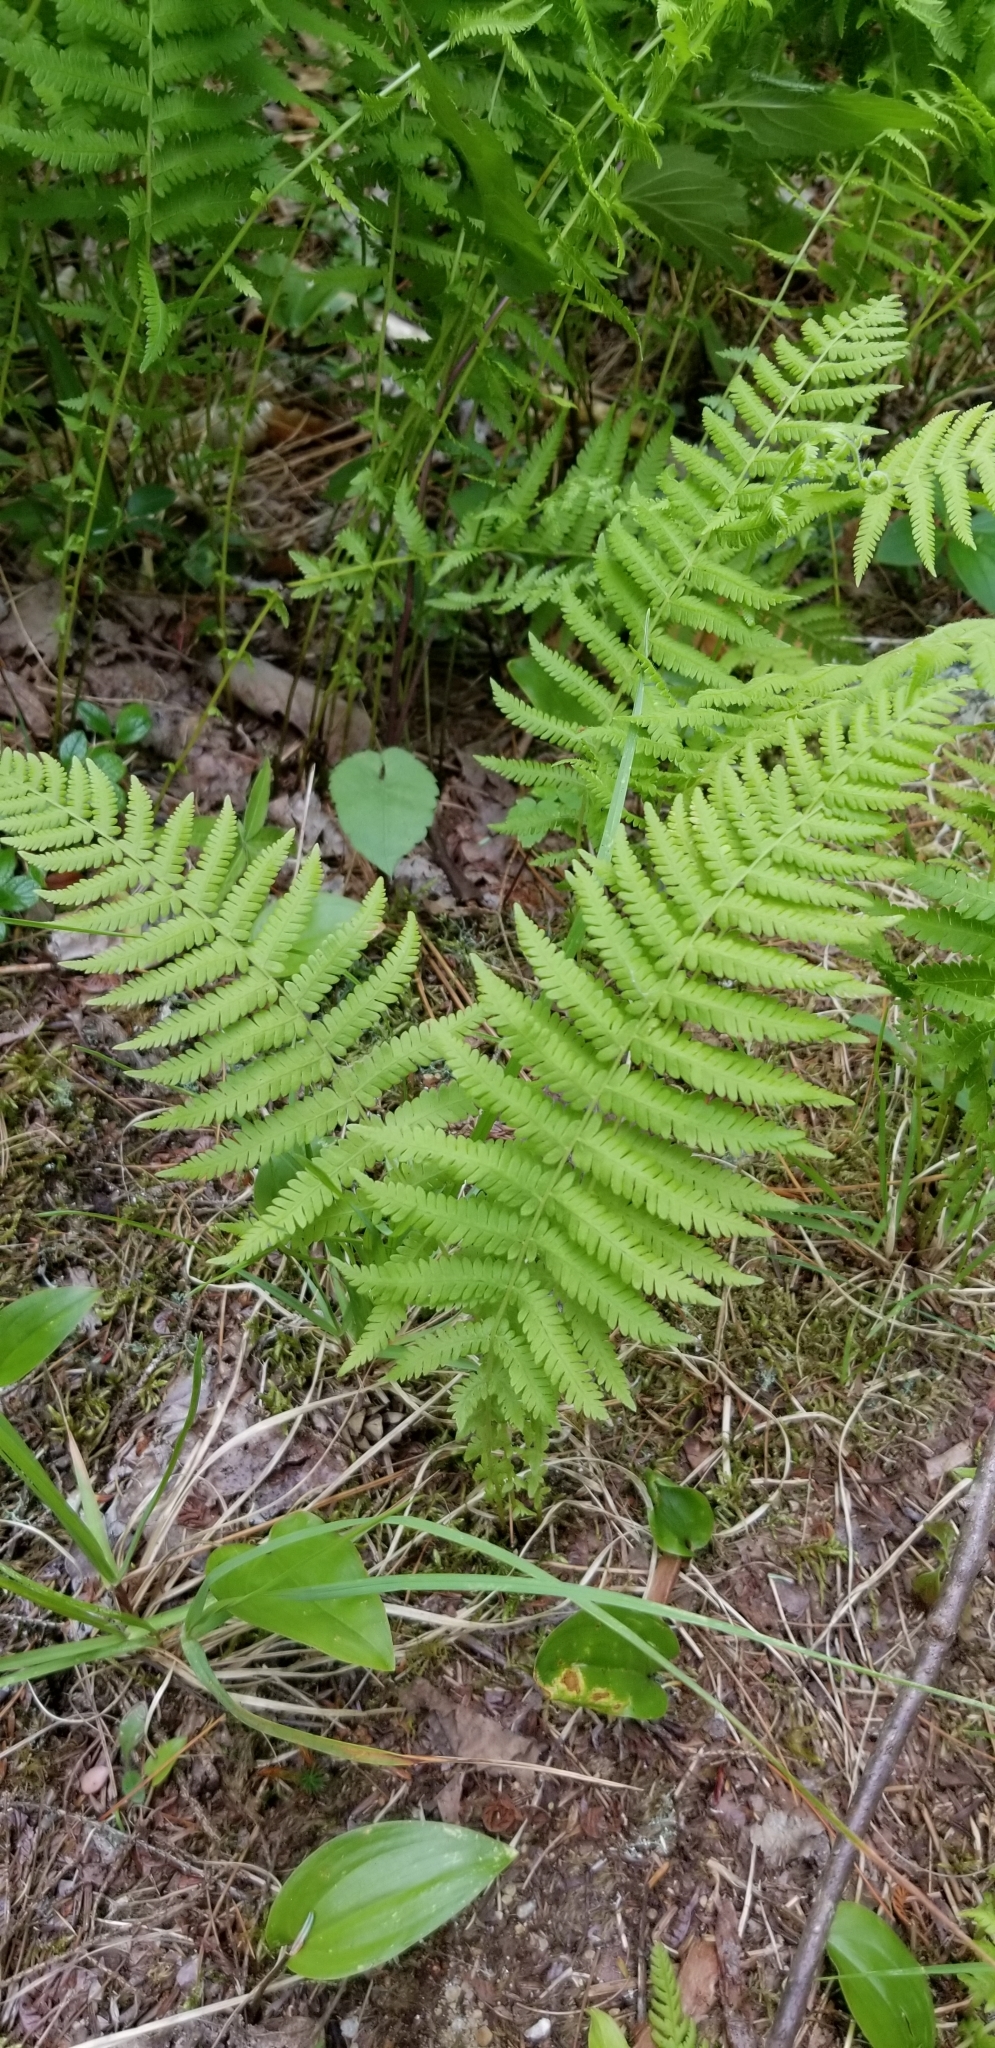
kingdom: Plantae
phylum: Tracheophyta
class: Polypodiopsida
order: Polypodiales
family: Thelypteridaceae
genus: Amauropelta
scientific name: Amauropelta noveboracensis
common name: New york fern
